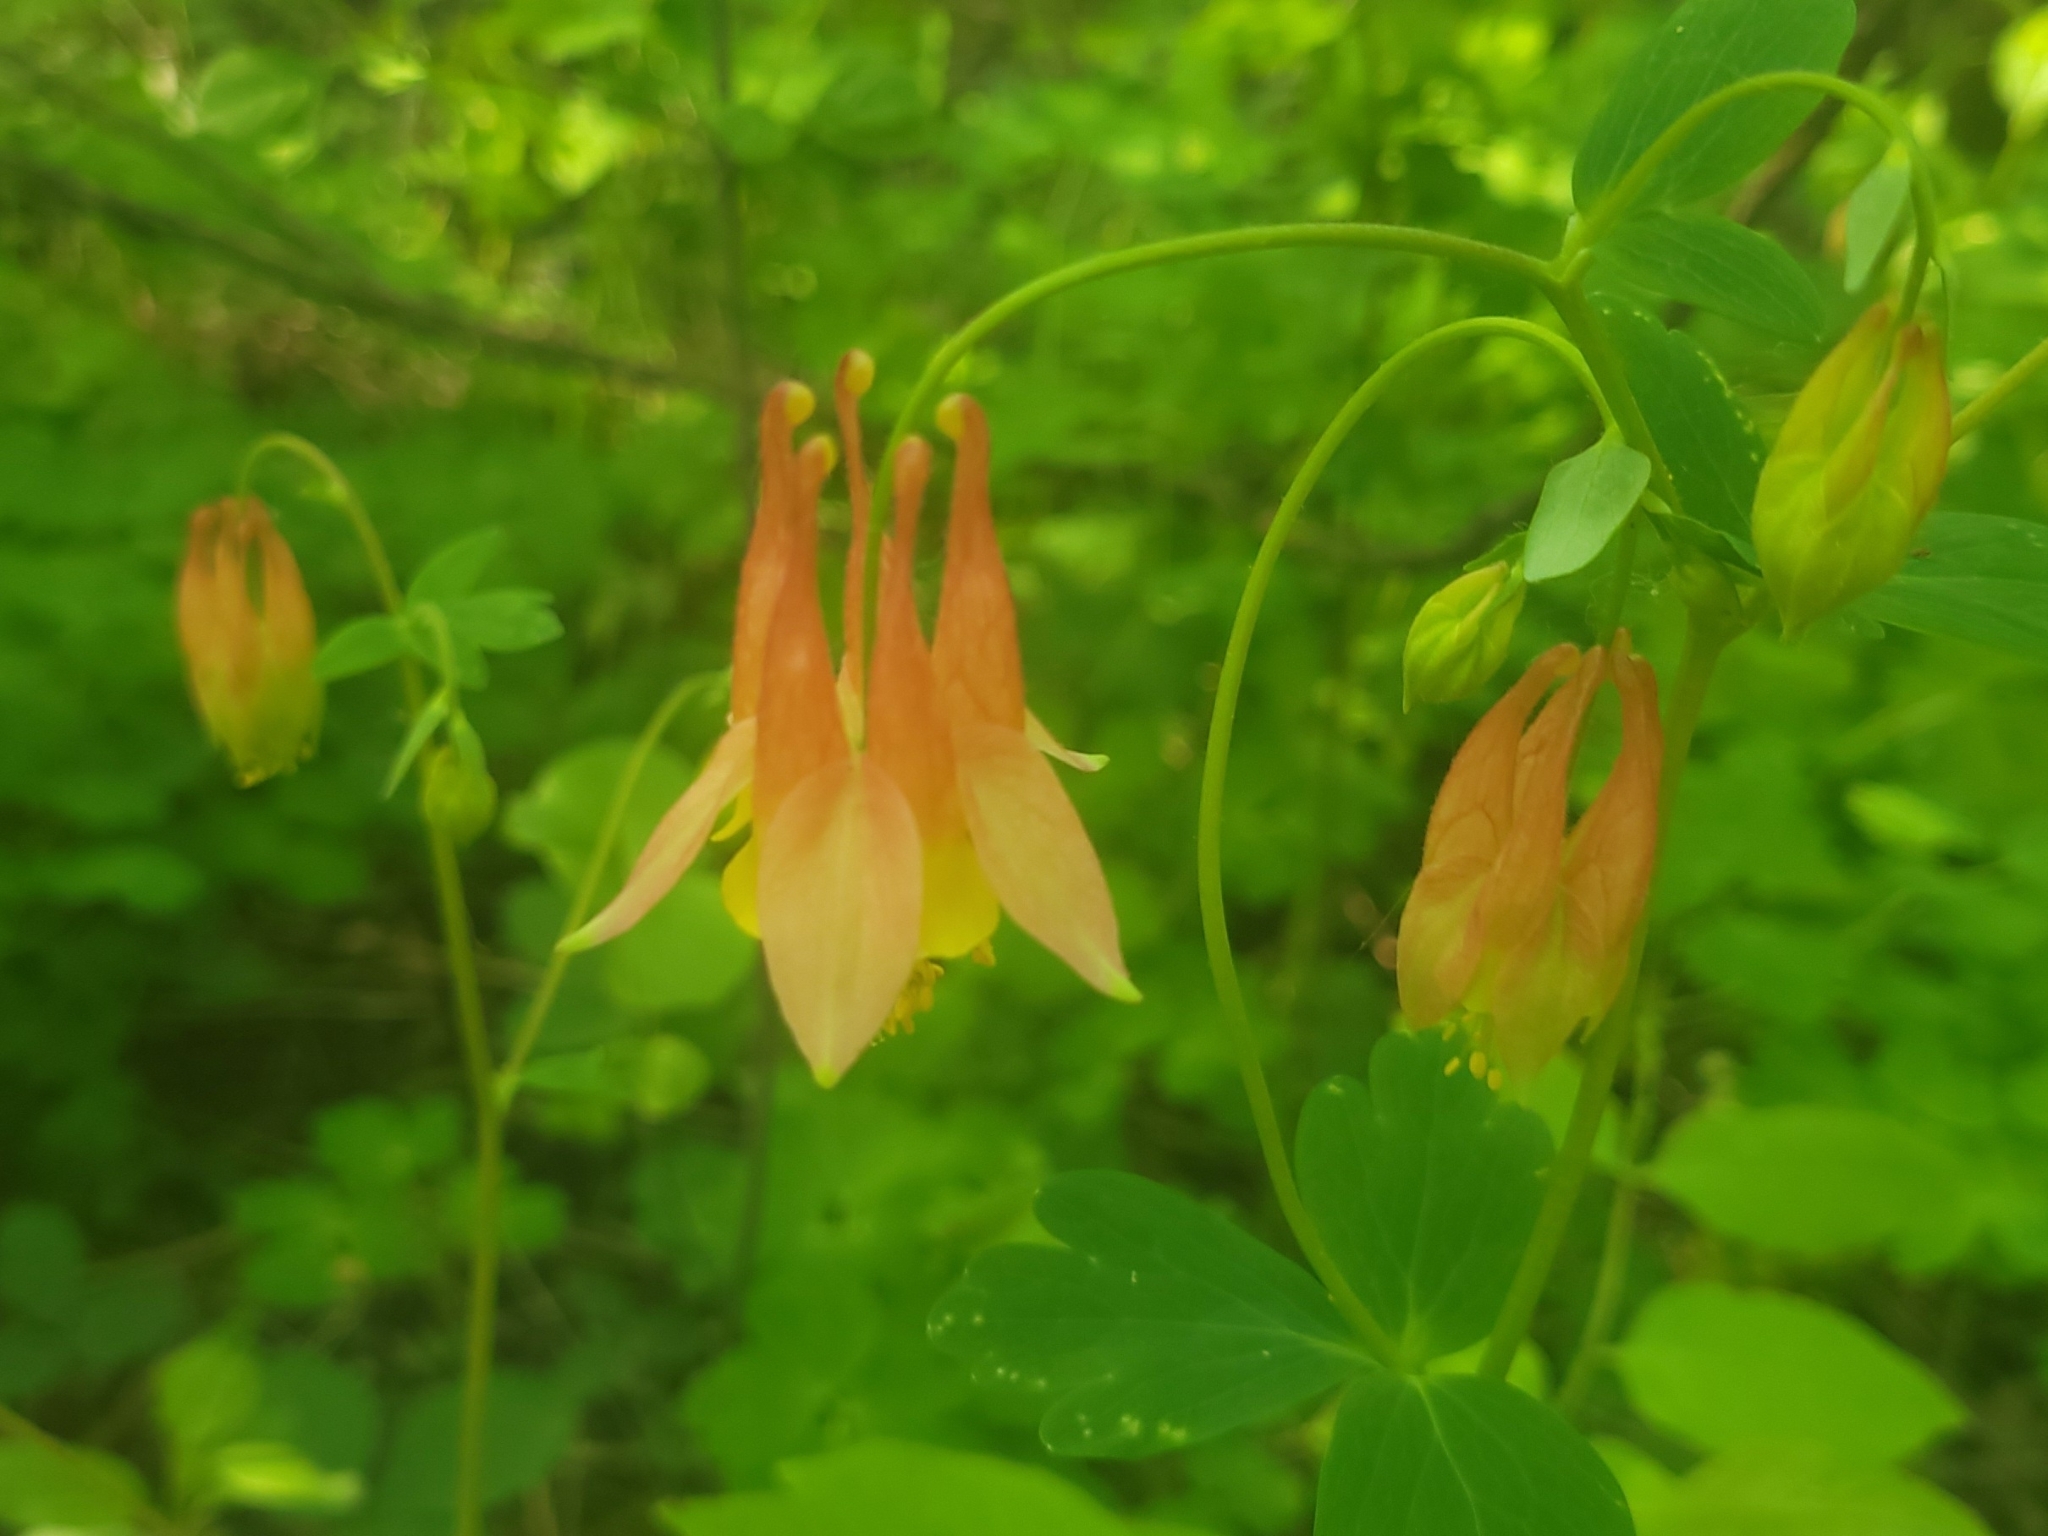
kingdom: Plantae
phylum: Tracheophyta
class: Magnoliopsida
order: Ranunculales
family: Ranunculaceae
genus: Aquilegia
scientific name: Aquilegia canadensis
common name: American columbine
